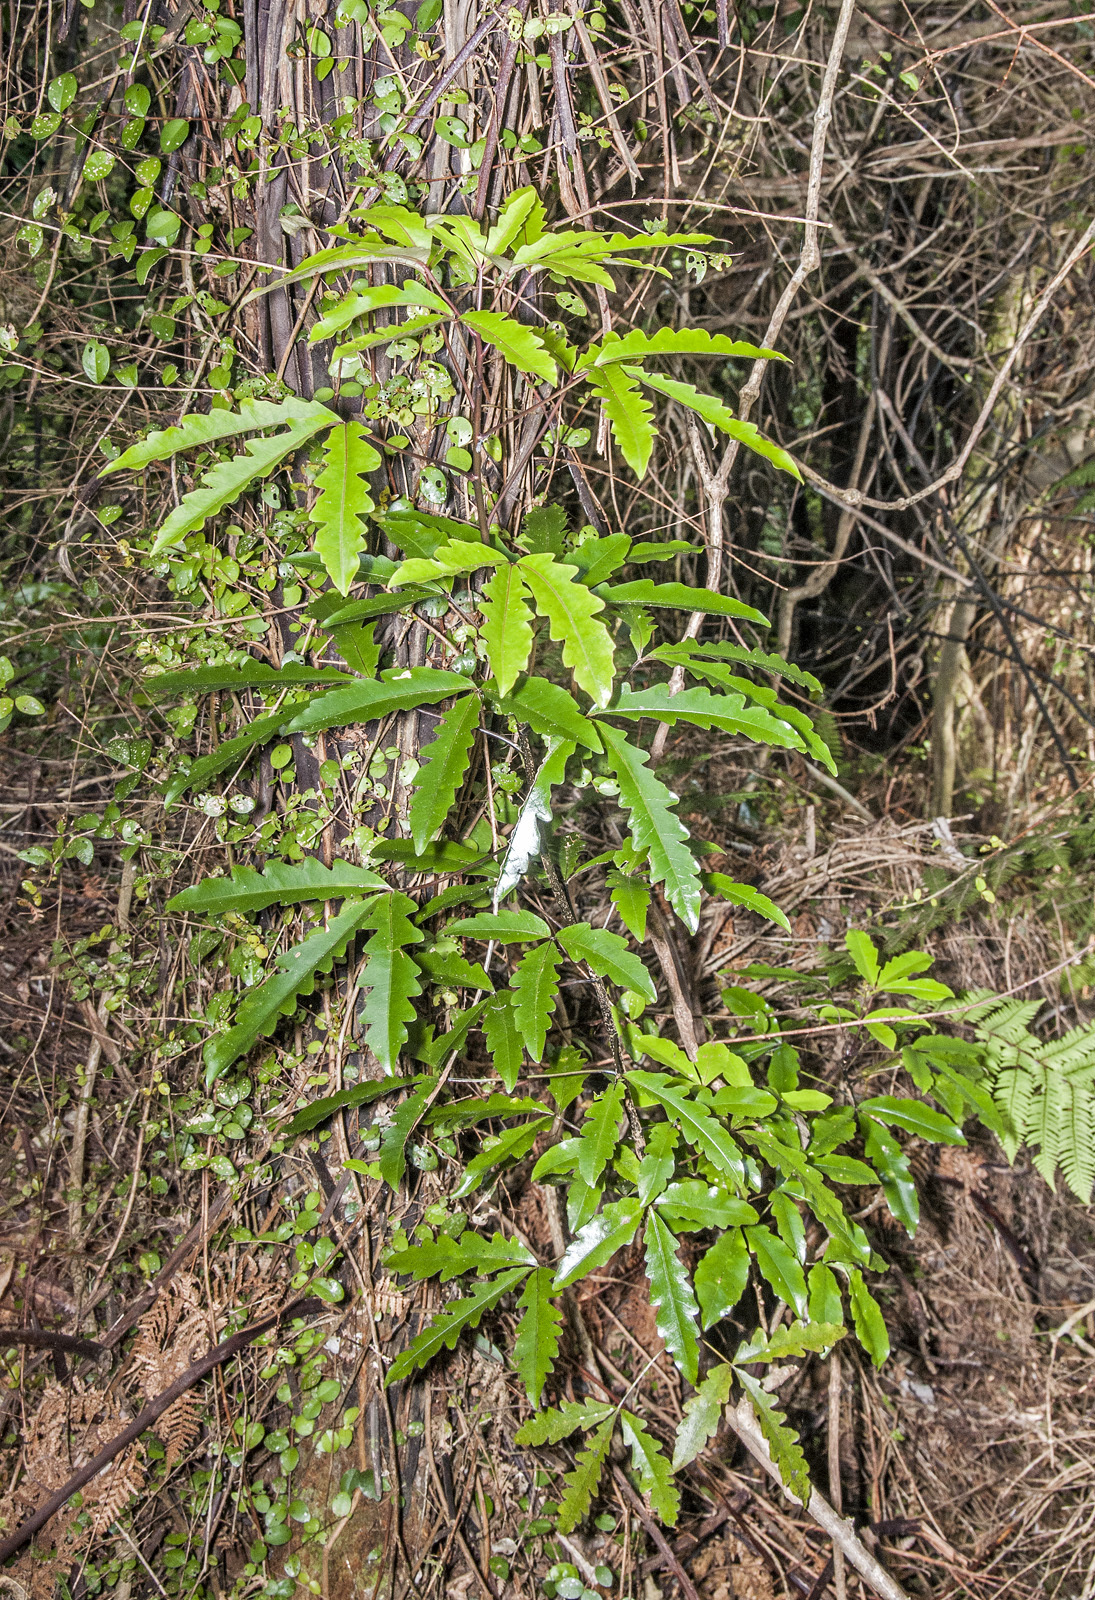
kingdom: Plantae
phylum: Tracheophyta
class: Magnoliopsida
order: Apiales
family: Araliaceae
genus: Raukaua
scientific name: Raukaua edgerleyi
